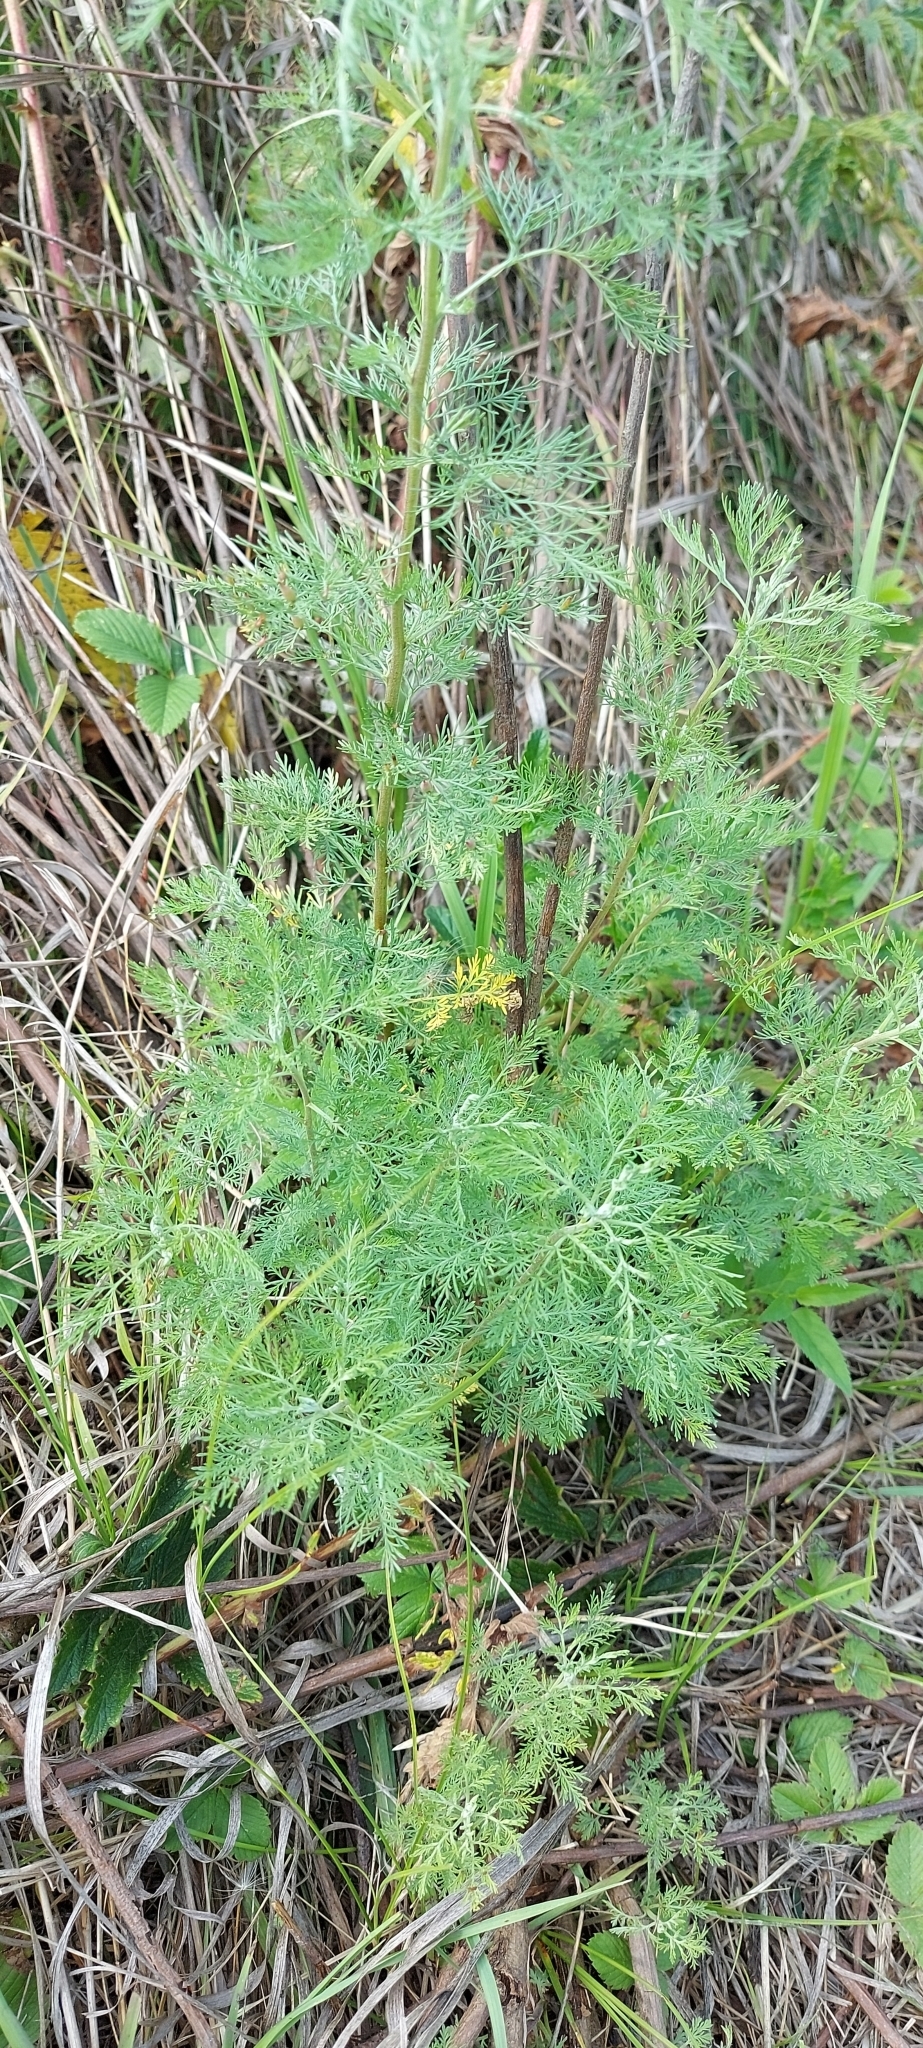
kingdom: Plantae
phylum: Tracheophyta
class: Magnoliopsida
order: Asterales
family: Asteraceae
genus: Artemisia
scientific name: Artemisia abrotanum
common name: Southernwood
